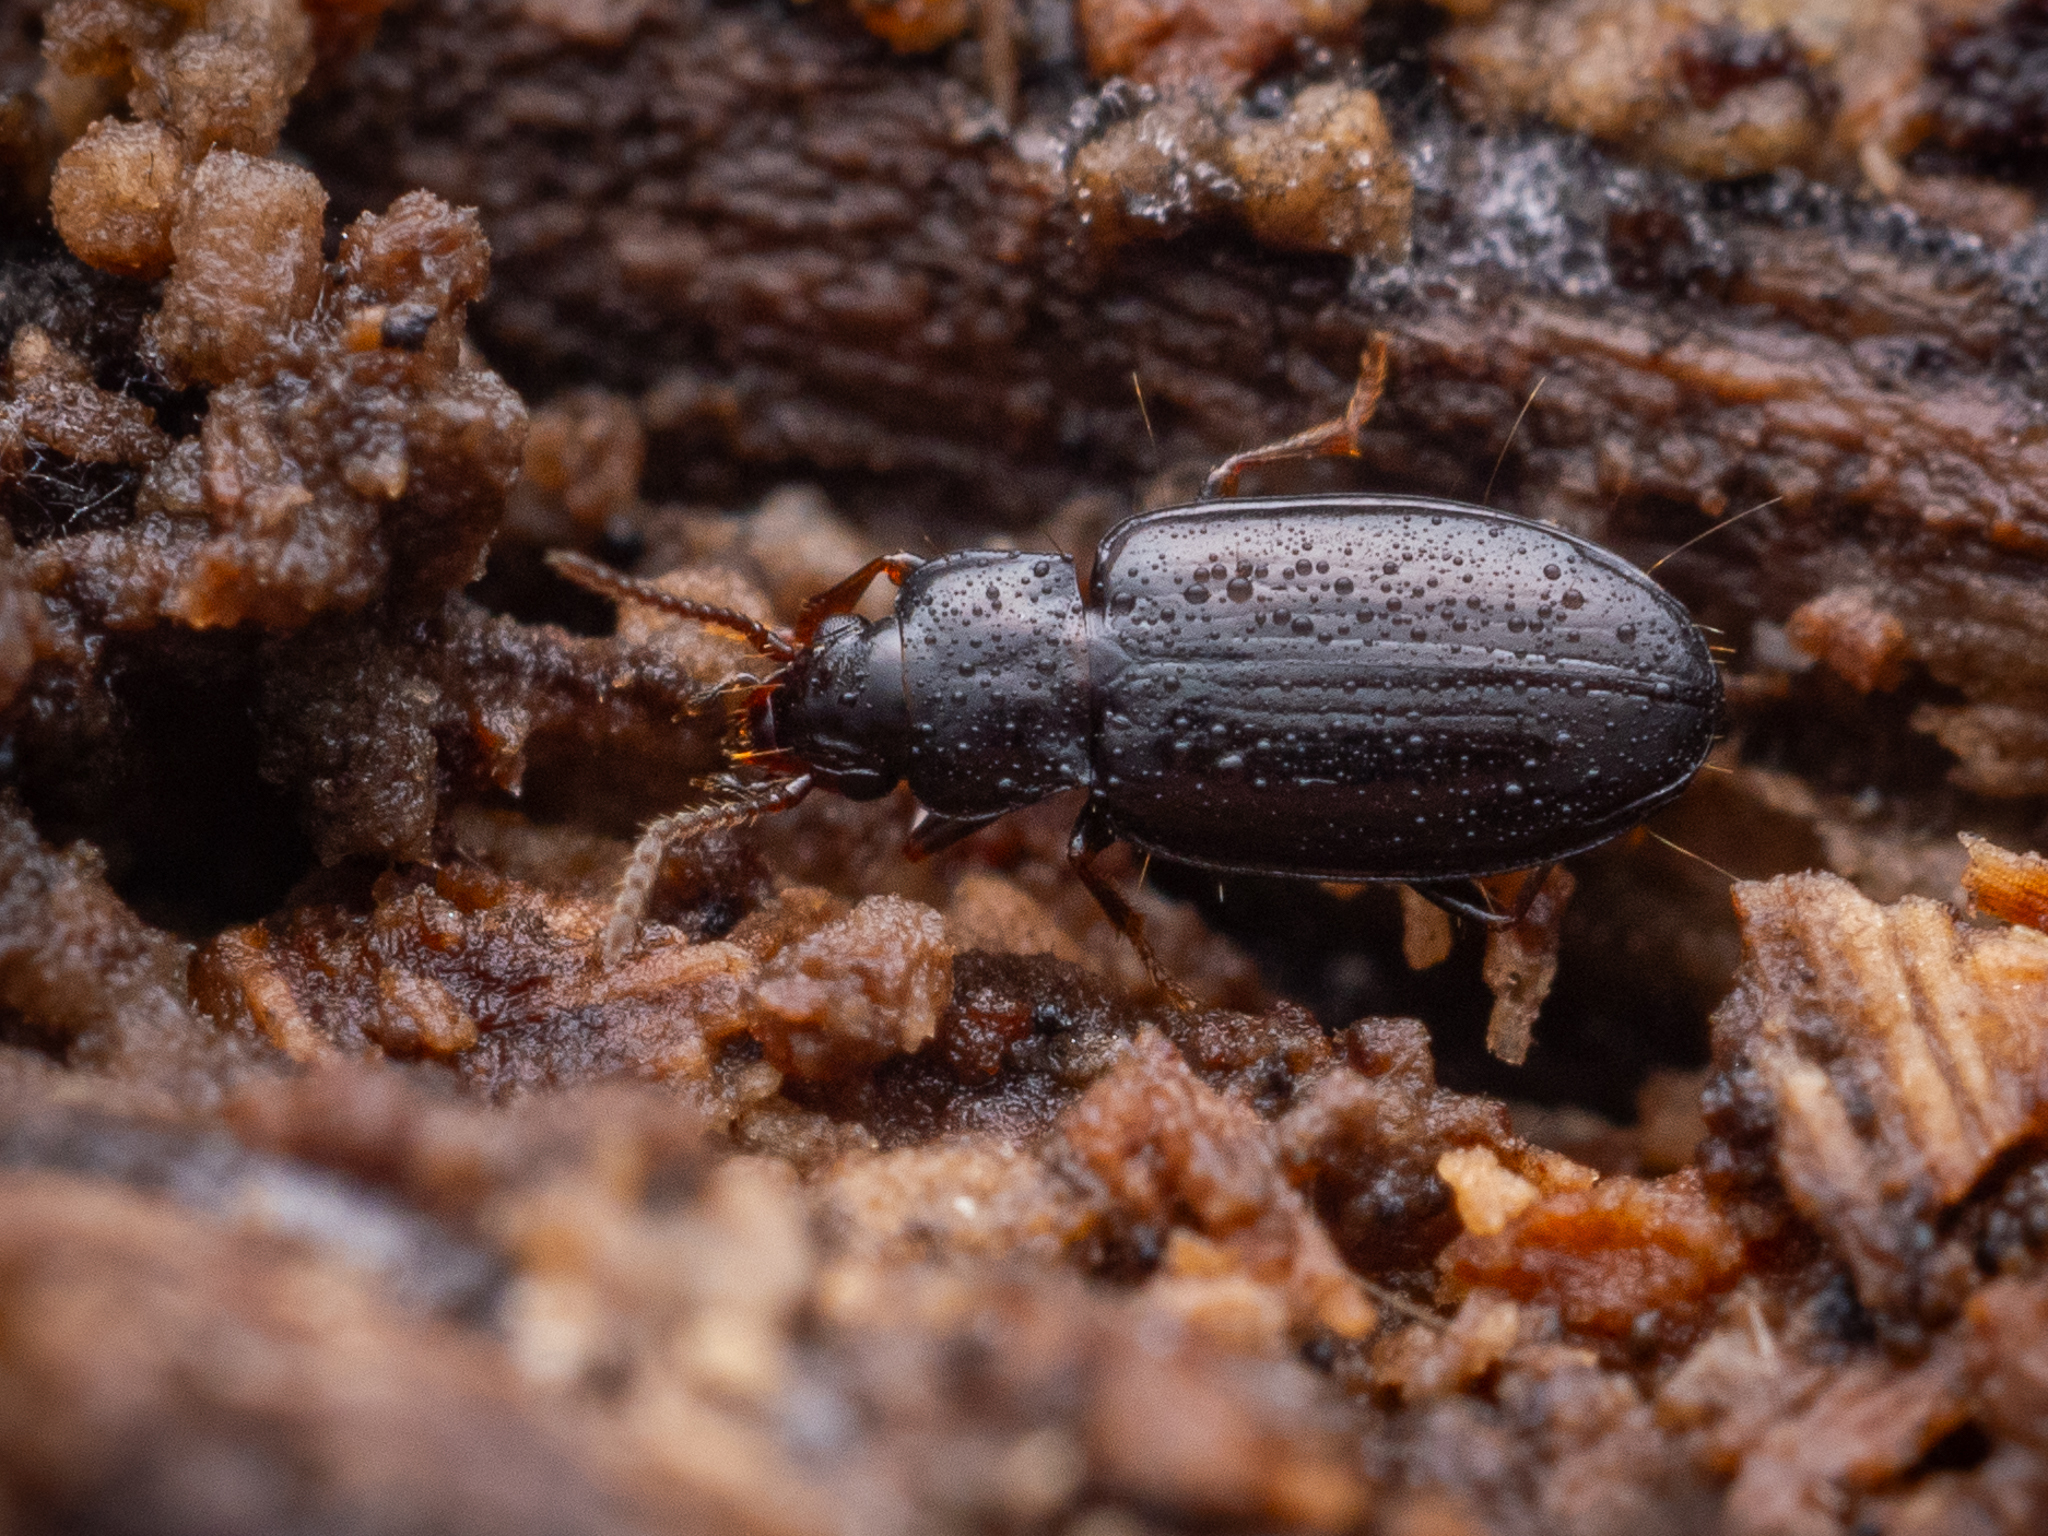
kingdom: Animalia
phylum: Arthropoda
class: Insecta
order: Coleoptera
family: Carabidae
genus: Tachyta
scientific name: Tachyta nana
